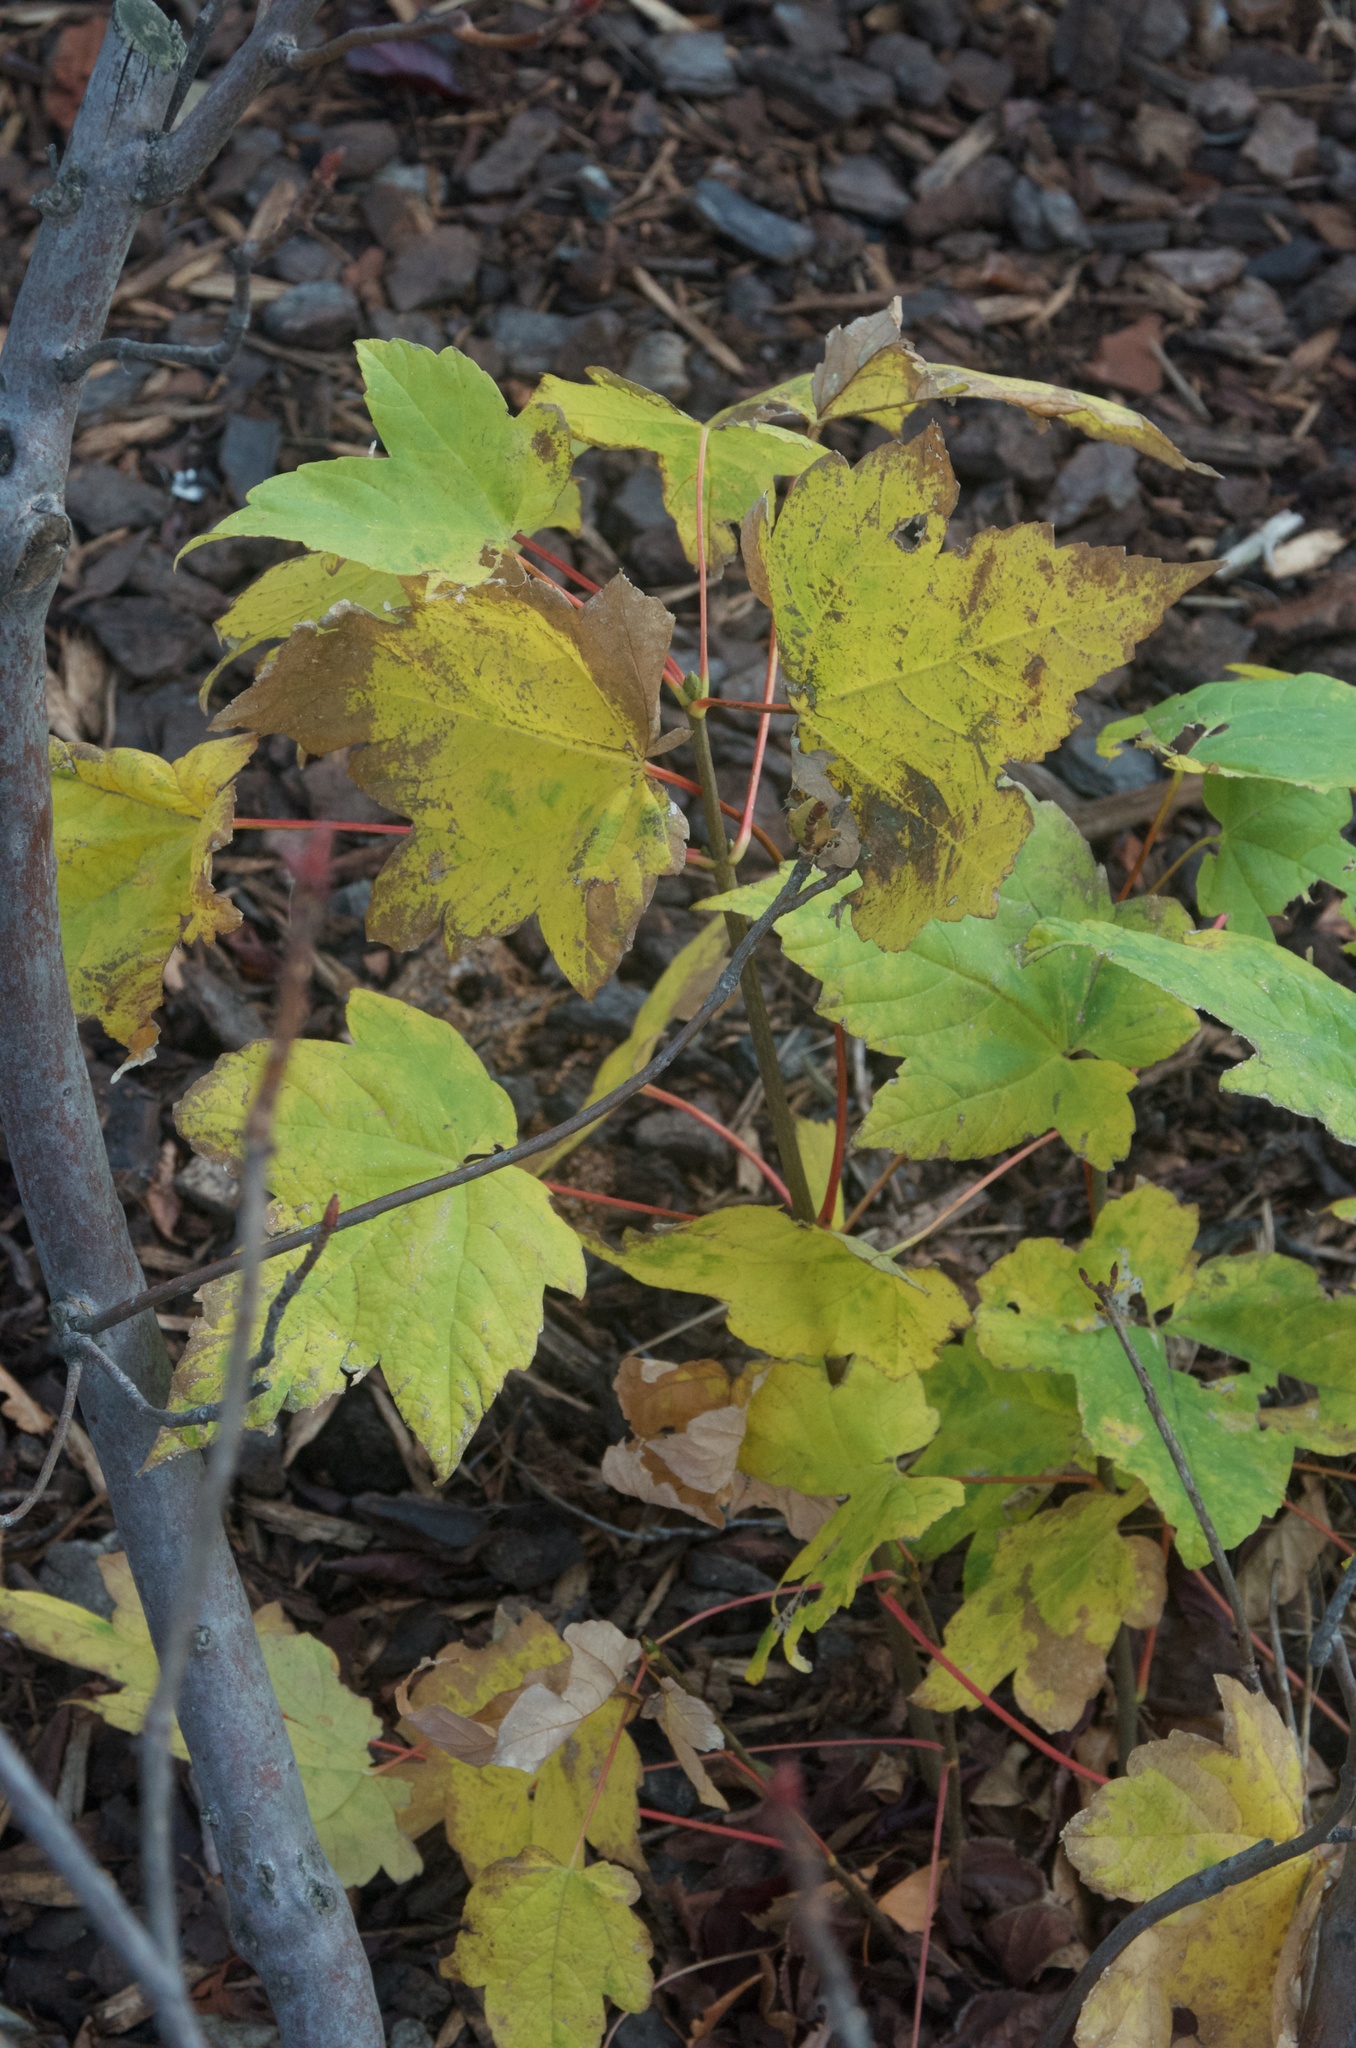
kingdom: Plantae
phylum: Tracheophyta
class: Magnoliopsida
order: Sapindales
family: Sapindaceae
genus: Acer
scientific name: Acer pseudoplatanus
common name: Sycamore
